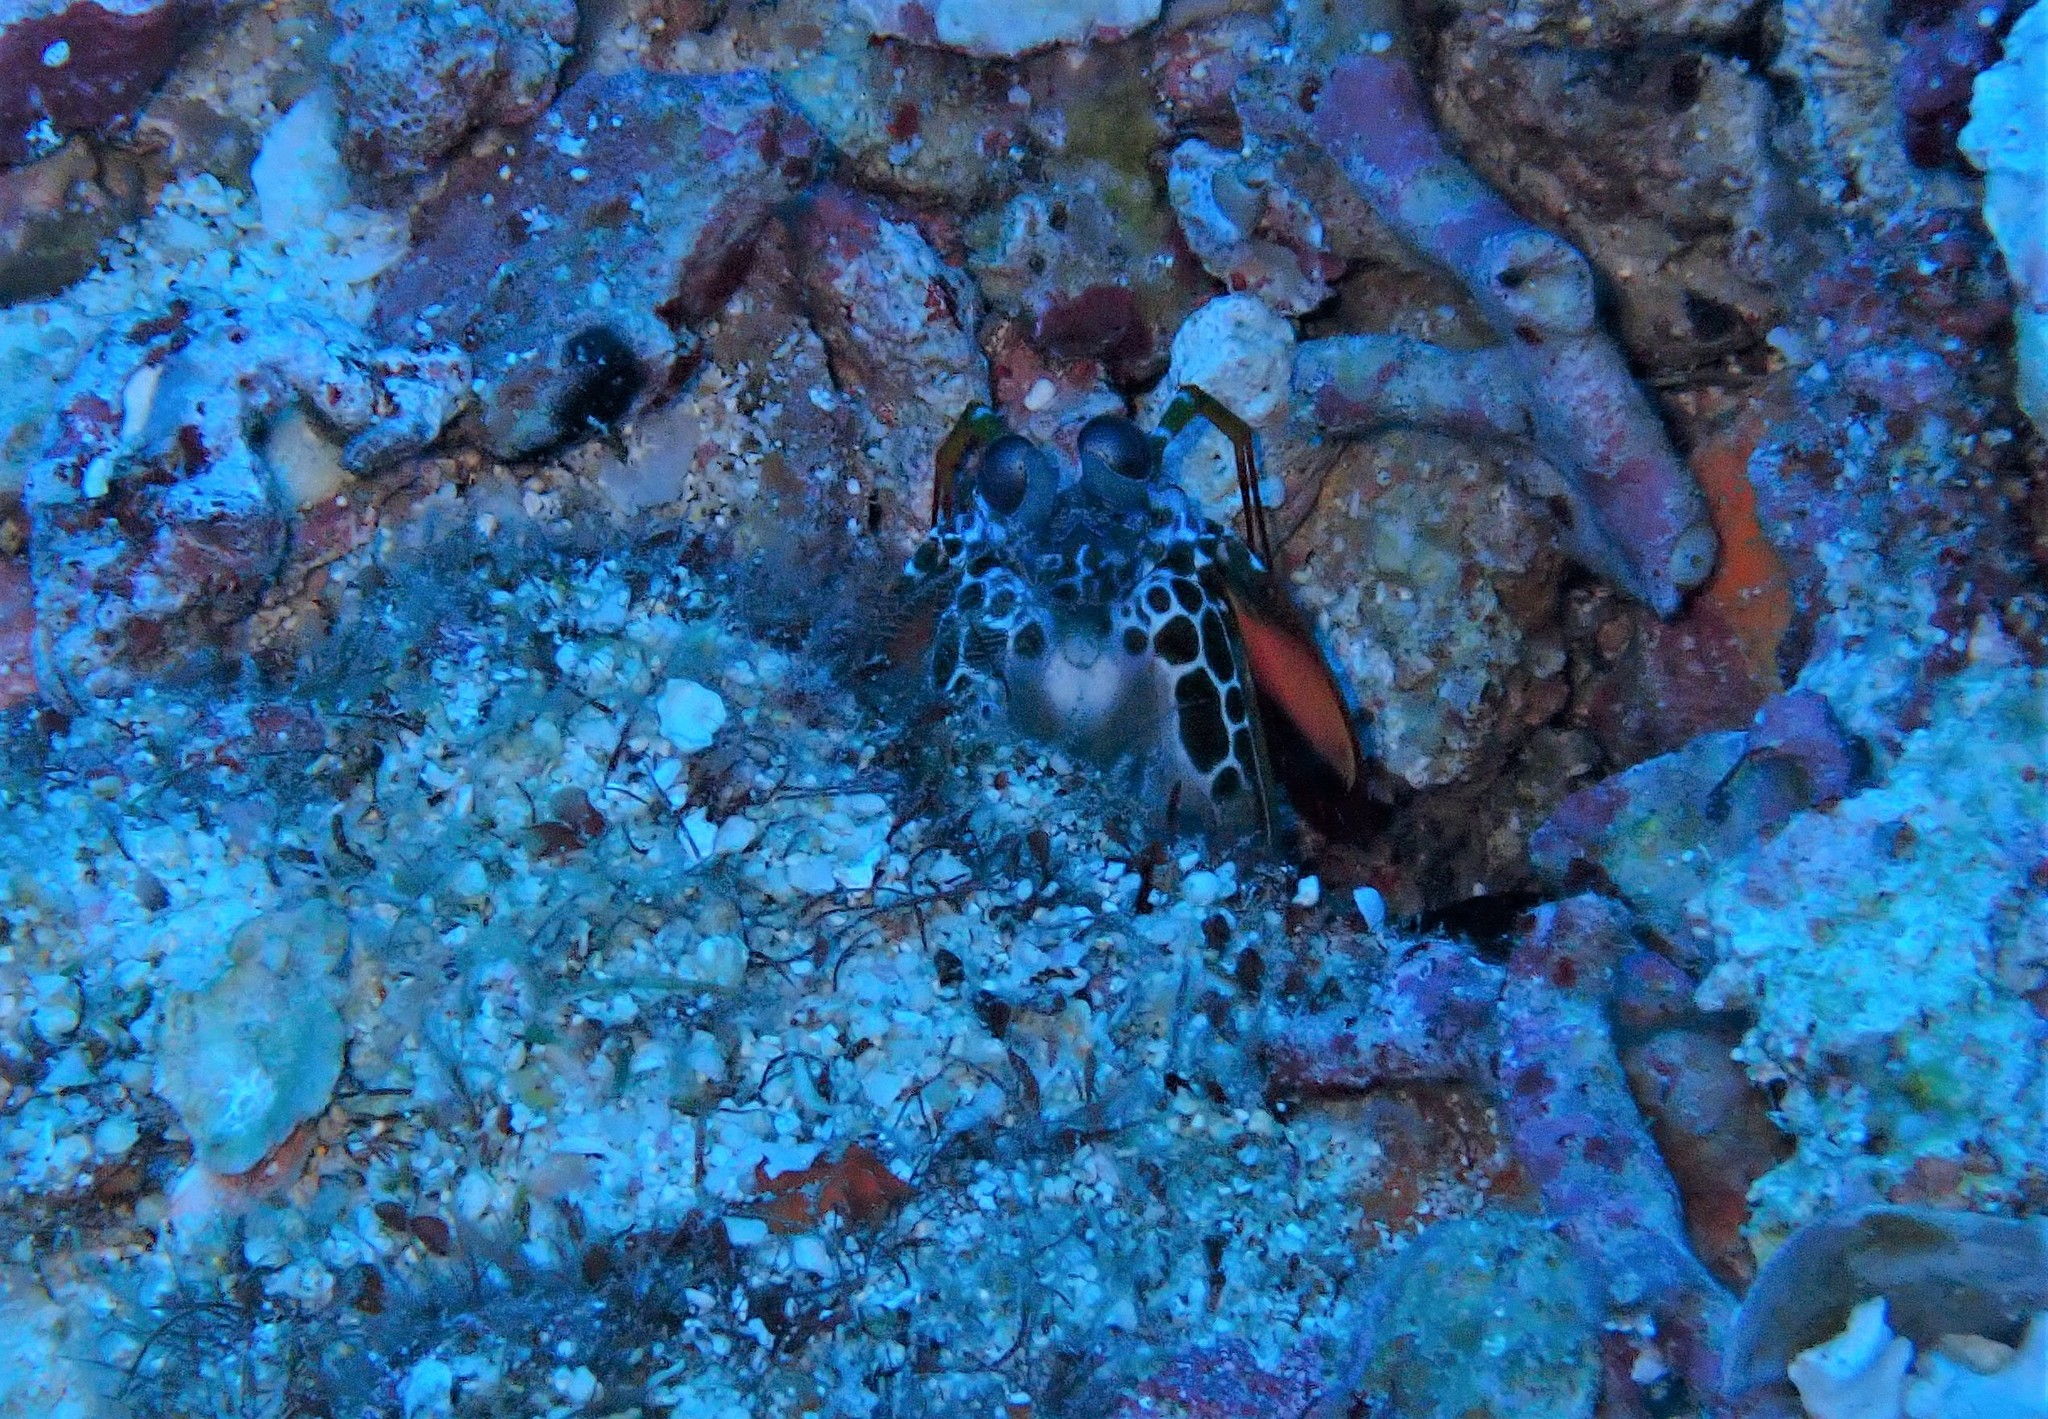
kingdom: Animalia
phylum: Arthropoda
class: Malacostraca
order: Stomatopoda
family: Odontodactylidae
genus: Odontodactylus
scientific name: Odontodactylus scyllarus
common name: Peacock mantis shrimp
